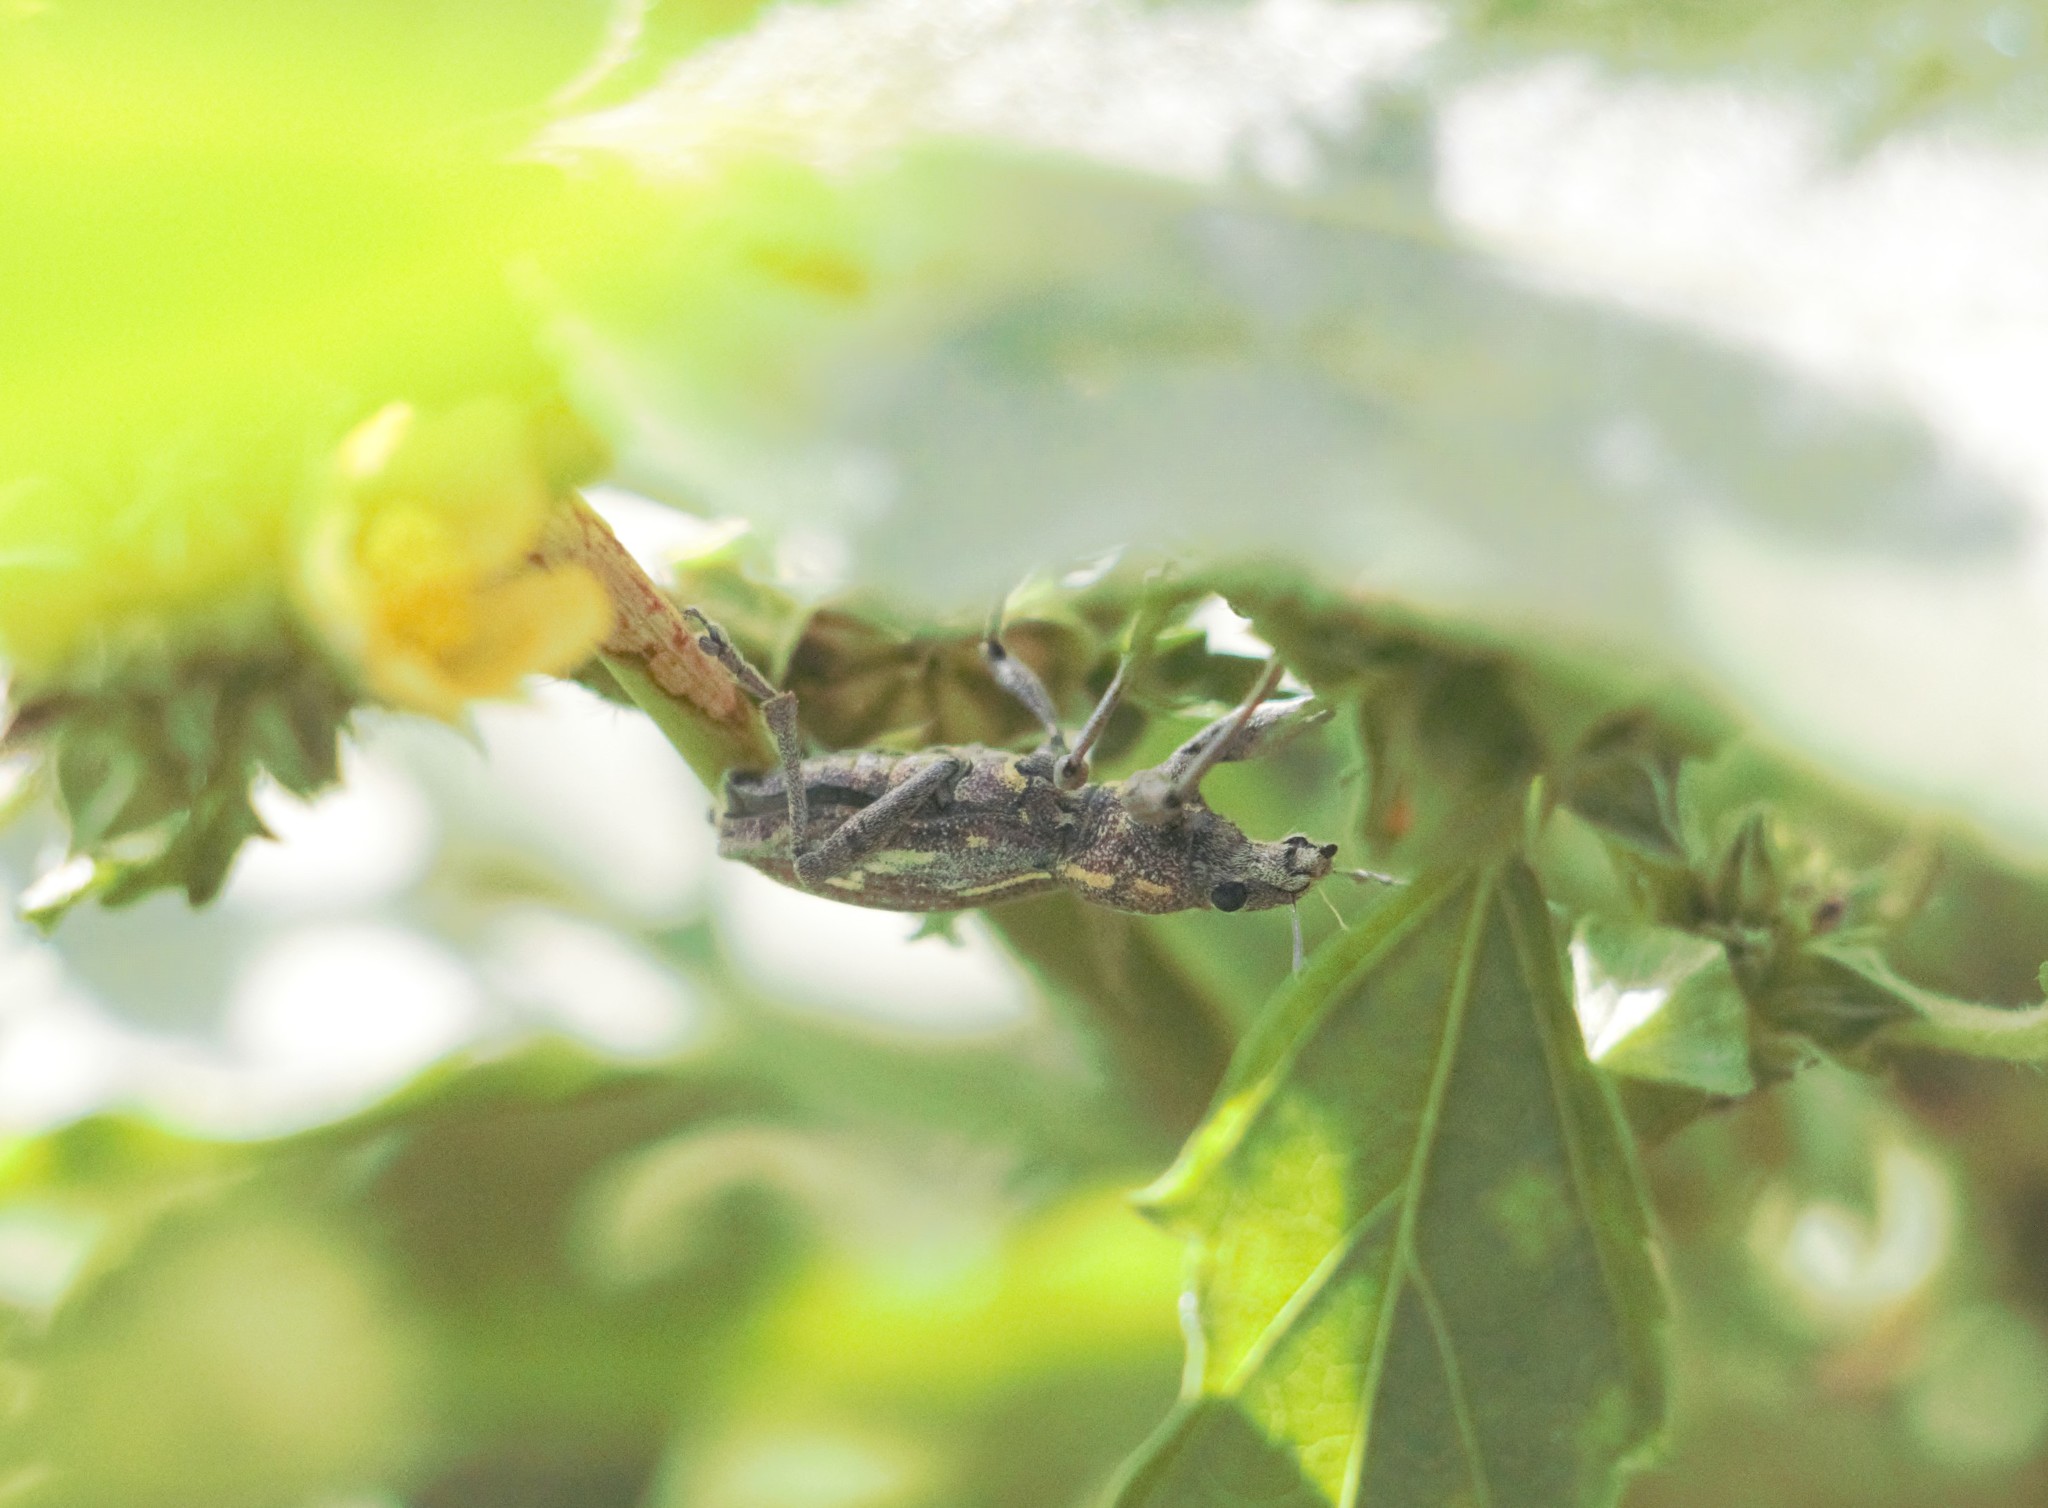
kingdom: Animalia
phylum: Arthropoda
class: Insecta
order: Coleoptera
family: Curculionidae
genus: Naupactus
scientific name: Naupactus xanthographus
